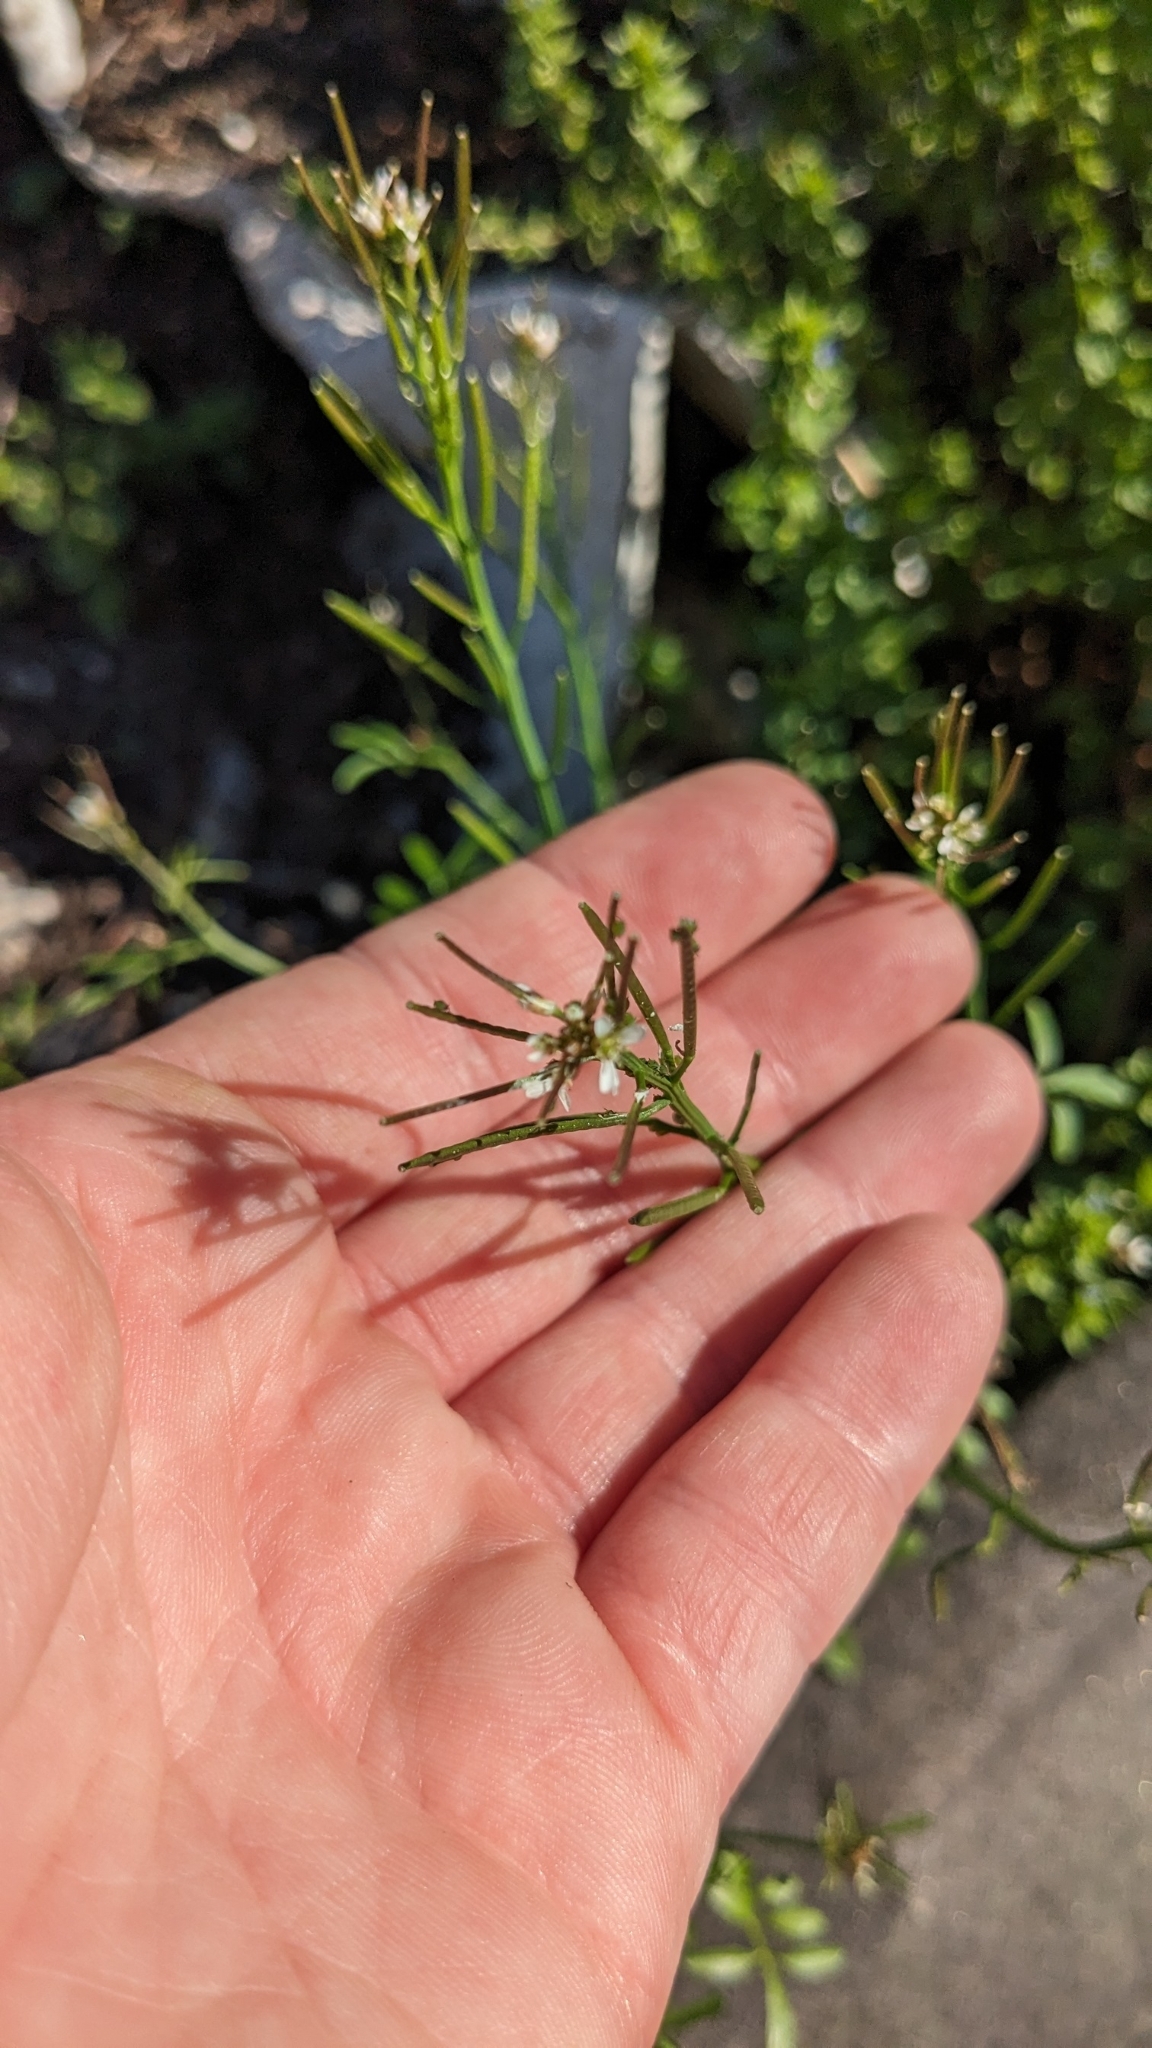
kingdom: Plantae
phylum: Tracheophyta
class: Magnoliopsida
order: Brassicales
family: Brassicaceae
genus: Cardamine
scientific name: Cardamine hirsuta
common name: Hairy bittercress
